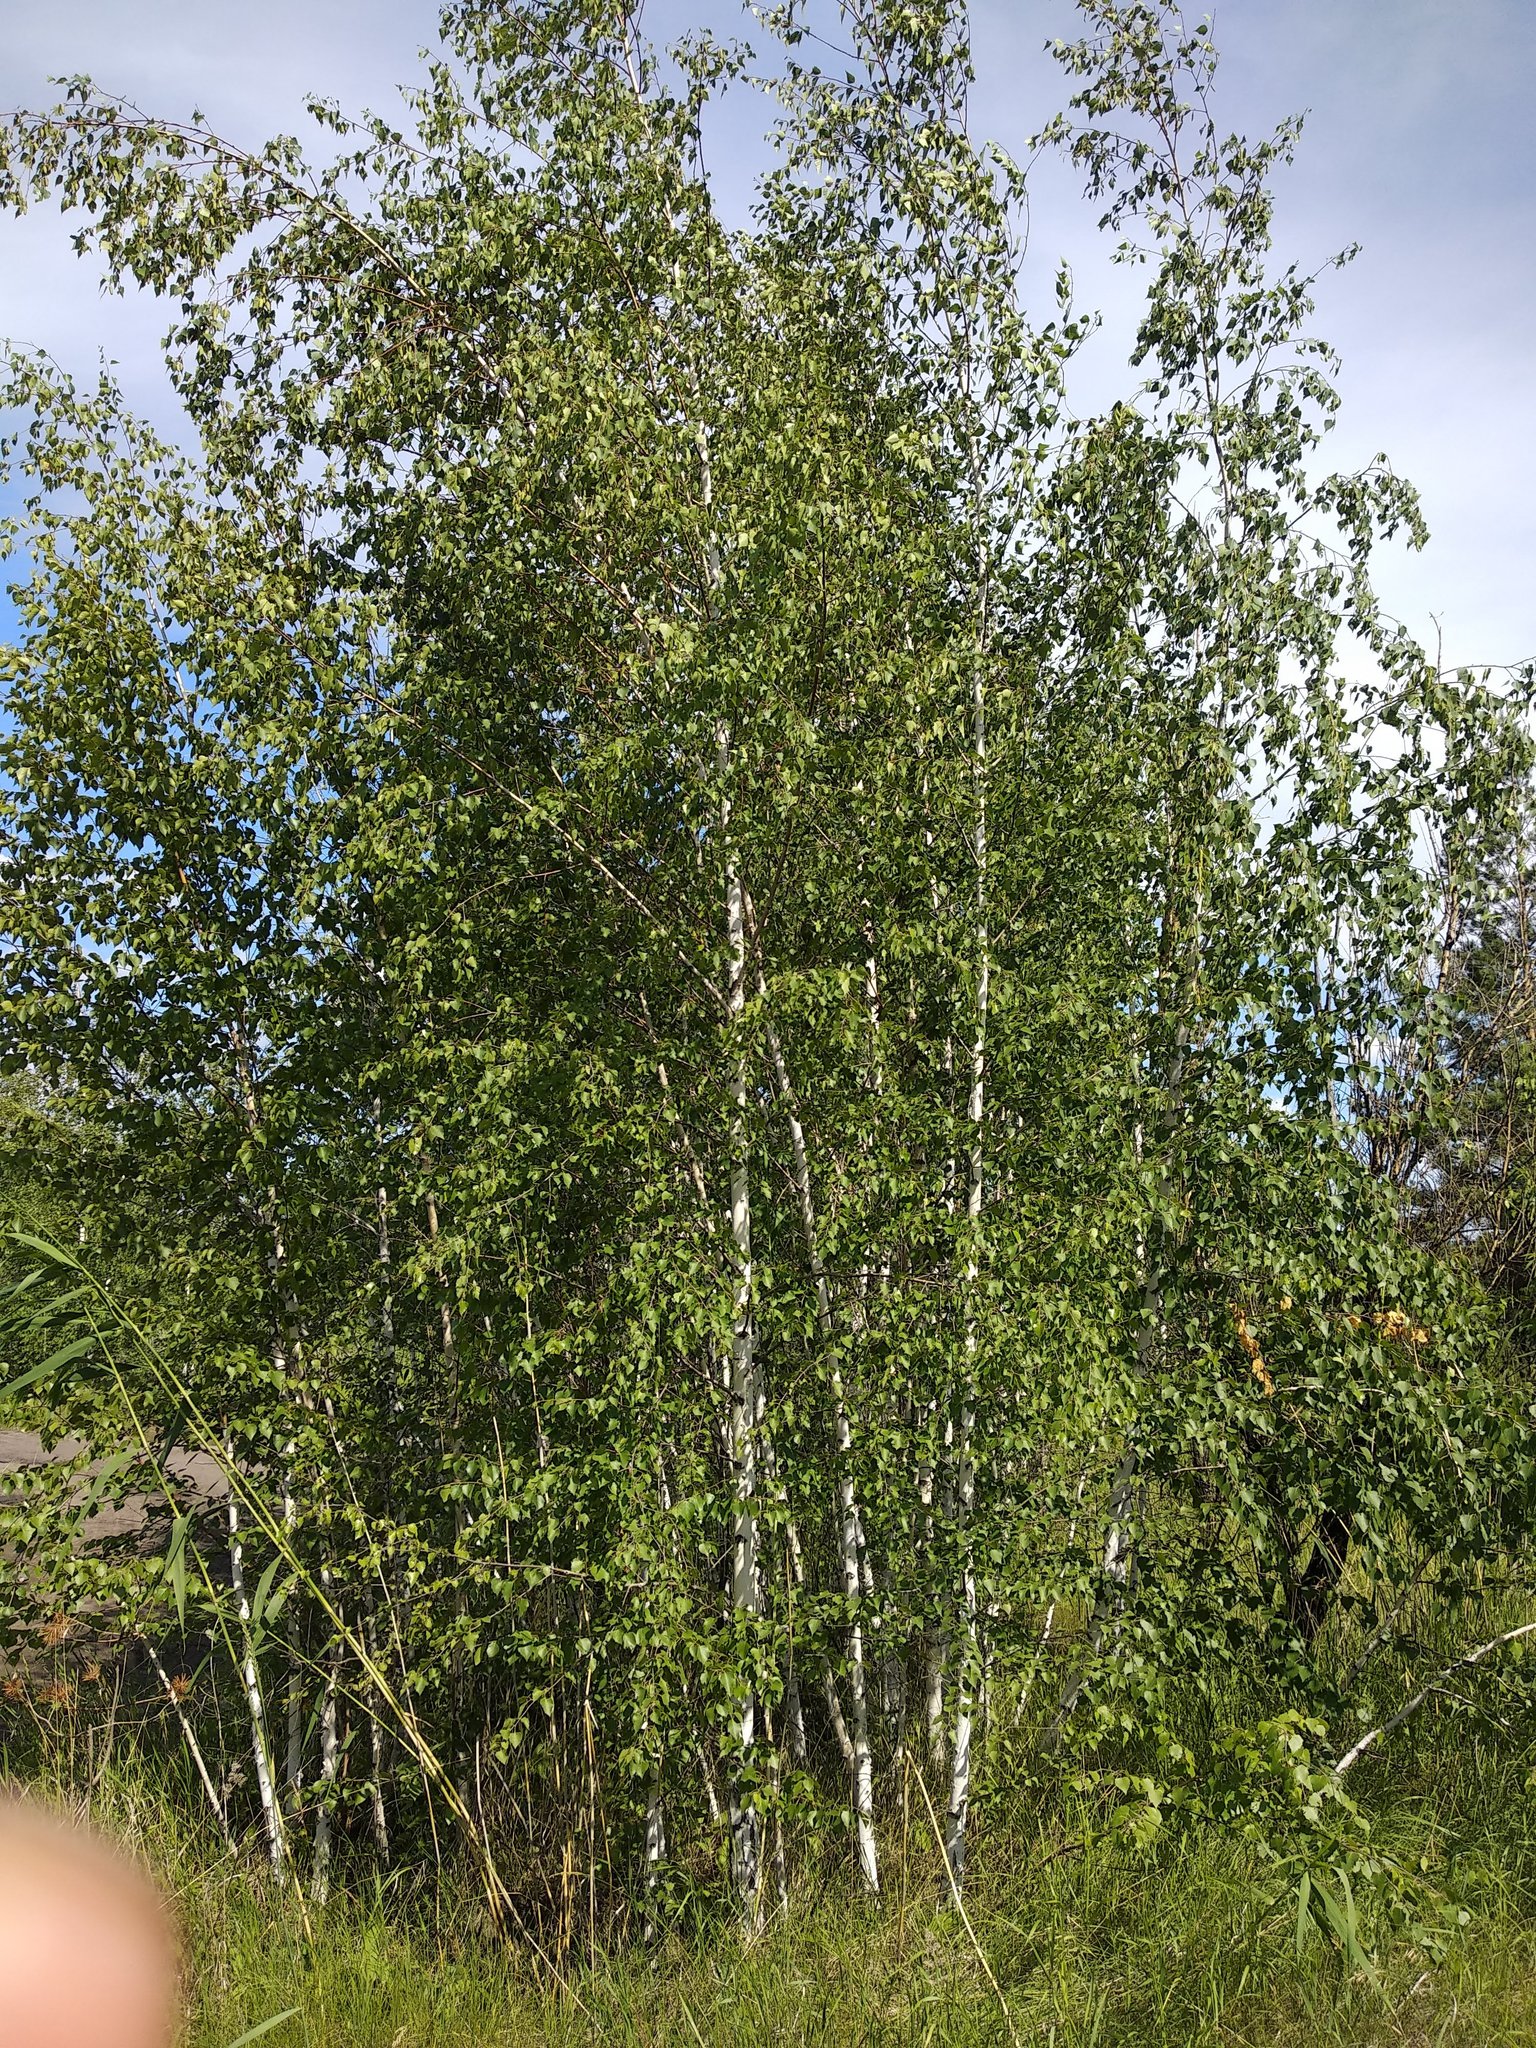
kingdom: Plantae
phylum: Tracheophyta
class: Magnoliopsida
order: Fagales
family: Betulaceae
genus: Betula
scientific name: Betula pendula
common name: Silver birch
